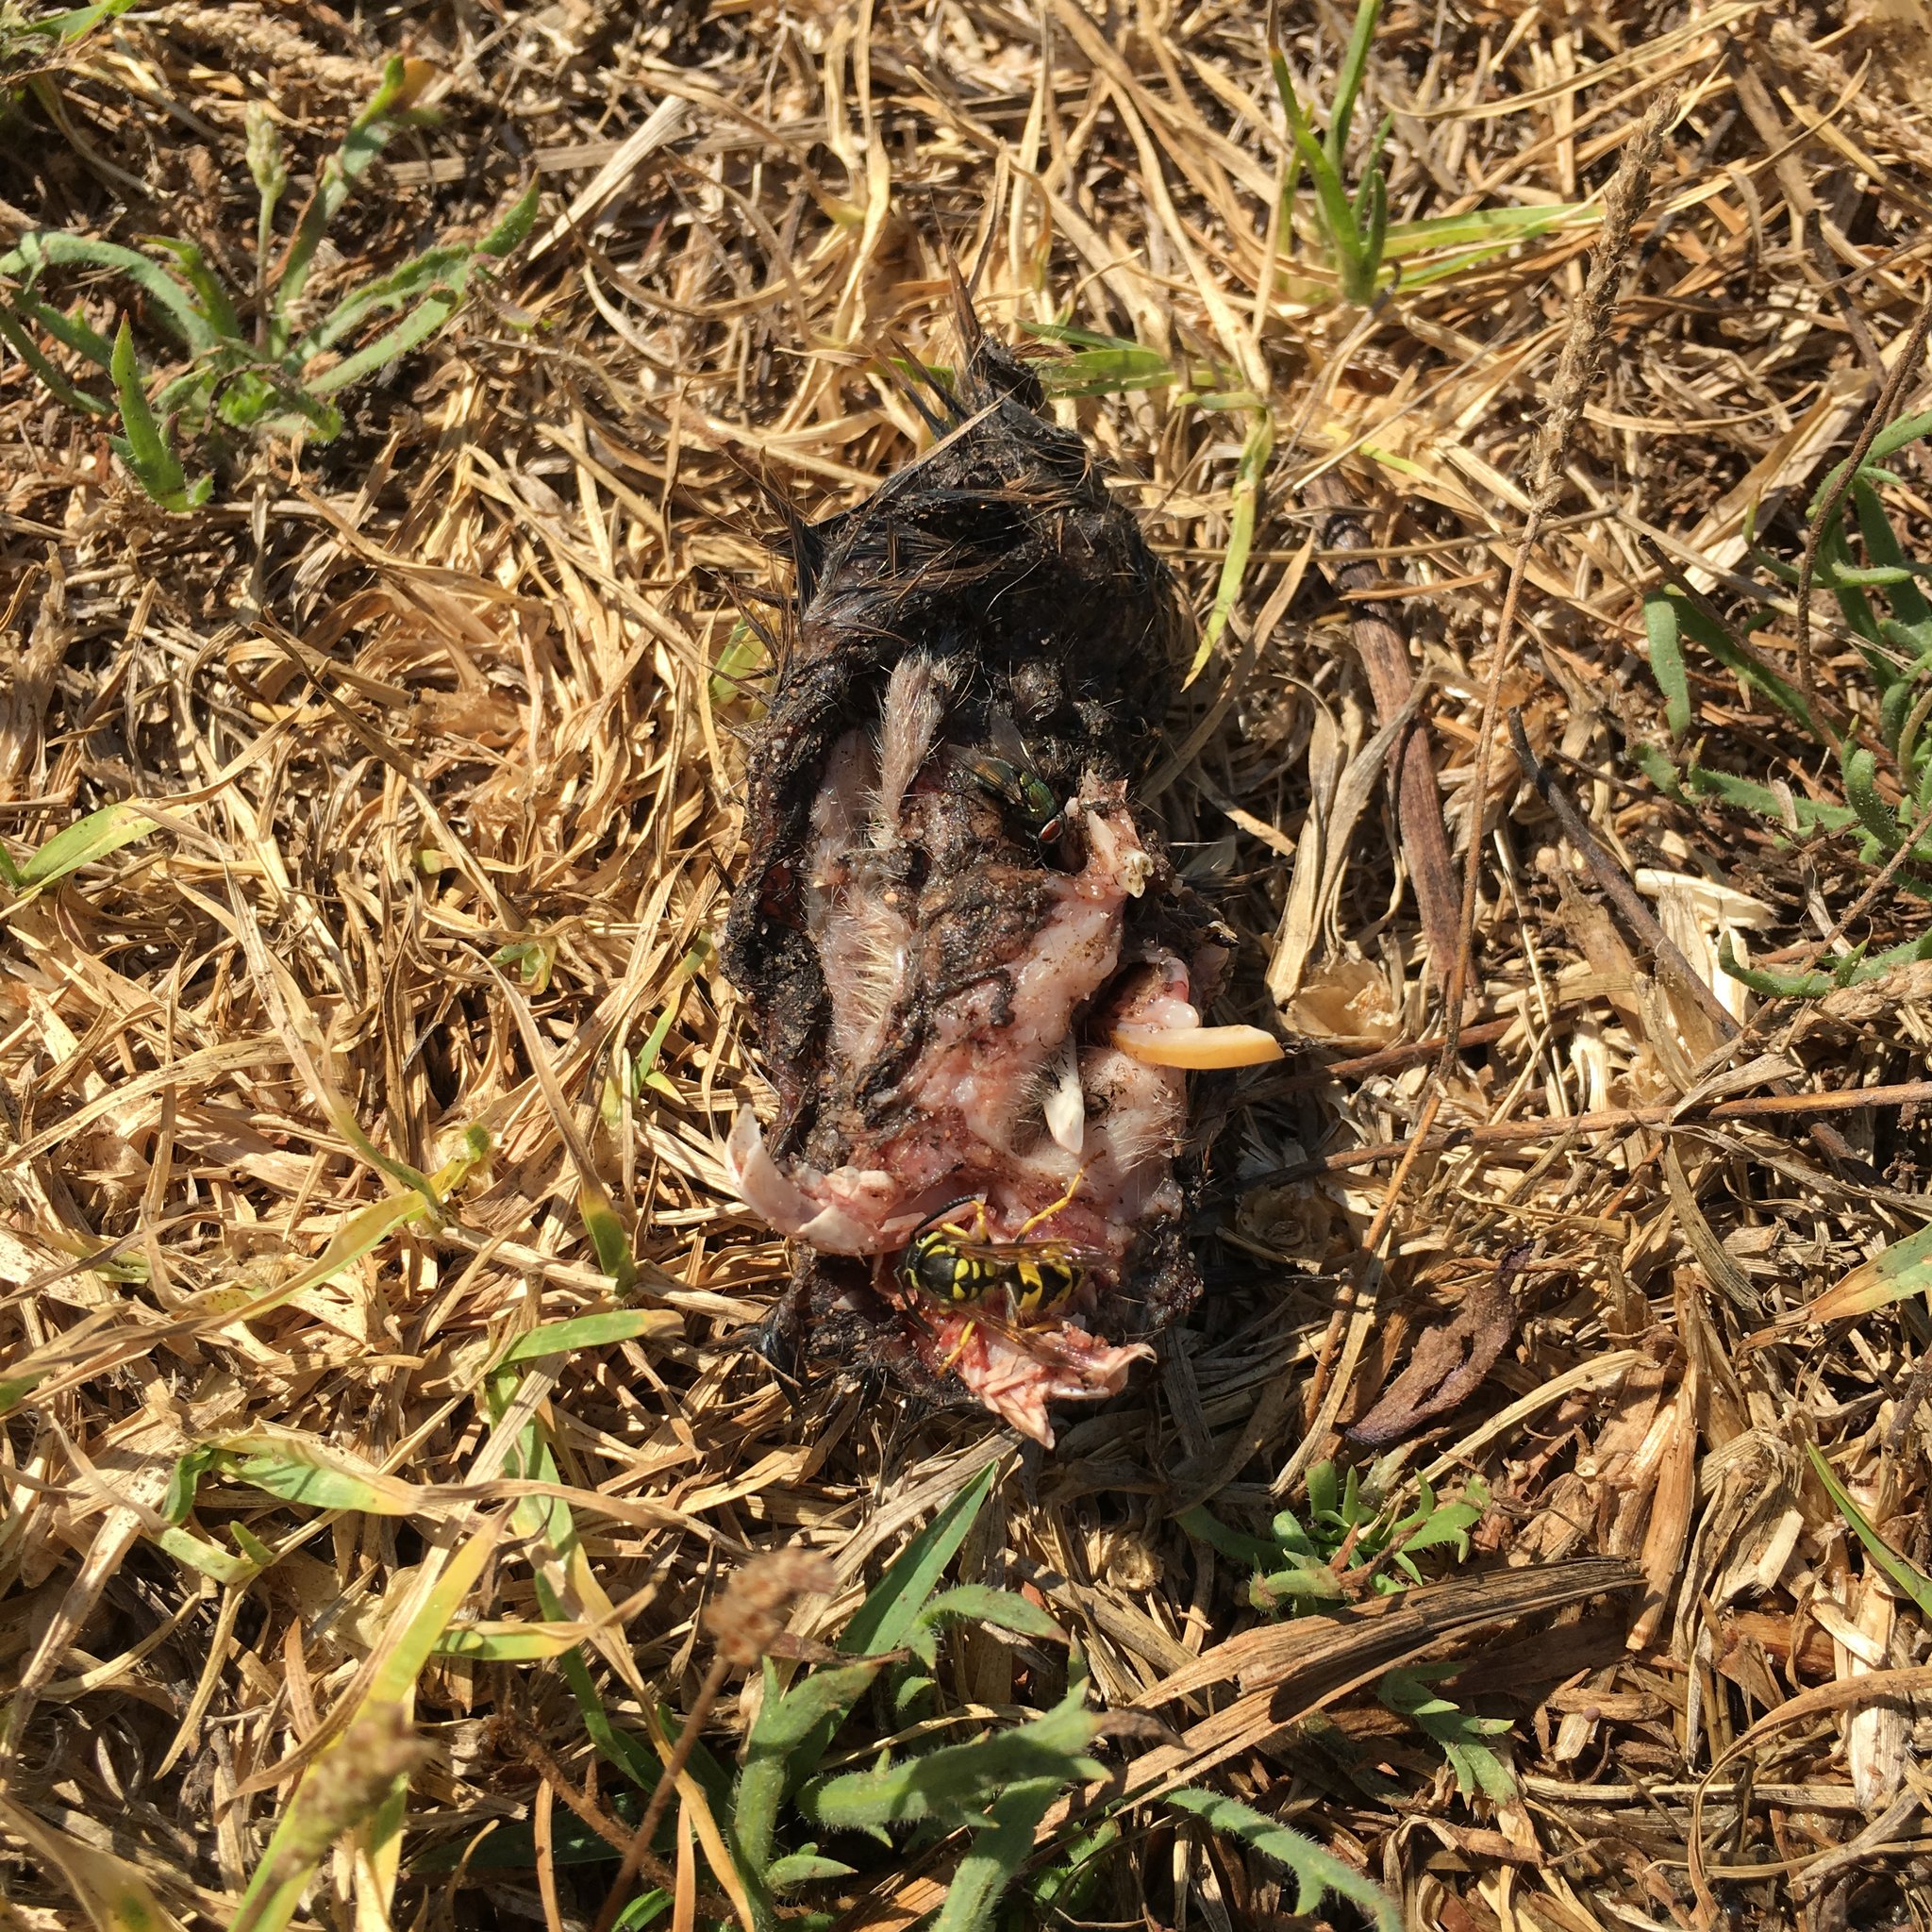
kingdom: Animalia
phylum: Arthropoda
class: Insecta
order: Hymenoptera
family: Vespidae
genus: Vespula
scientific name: Vespula pensylvanica
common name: Western yellowjacket
